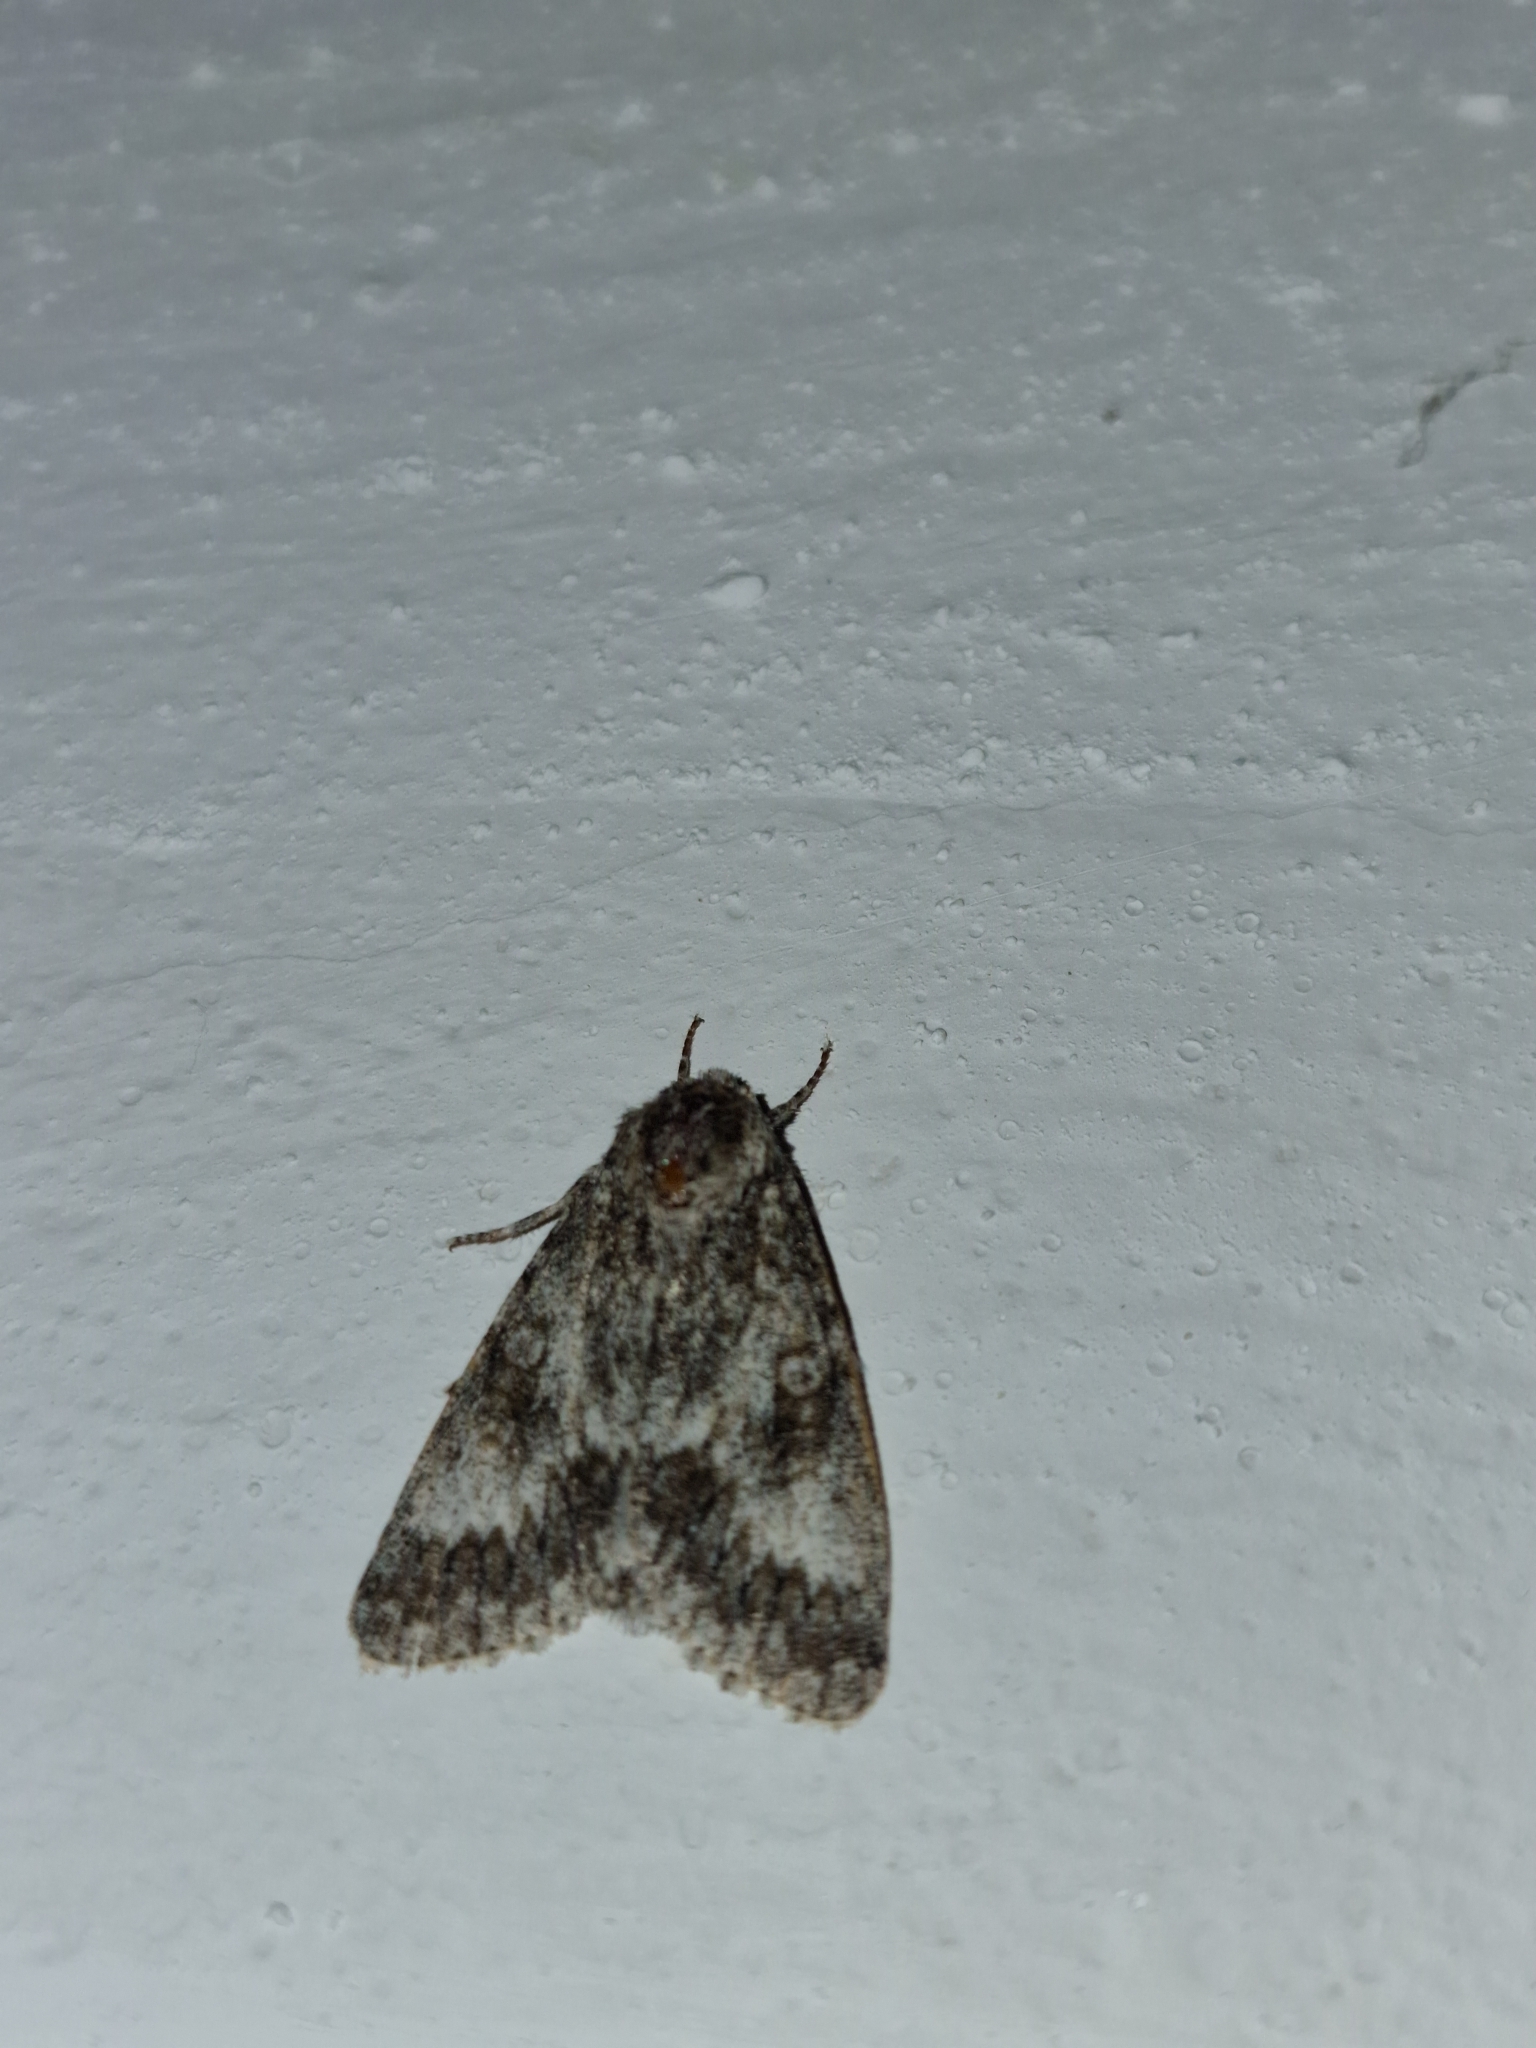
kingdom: Animalia
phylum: Arthropoda
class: Insecta
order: Lepidoptera
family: Noctuidae
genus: Acronicta
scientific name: Acronicta megacephala
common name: Poplar grey
